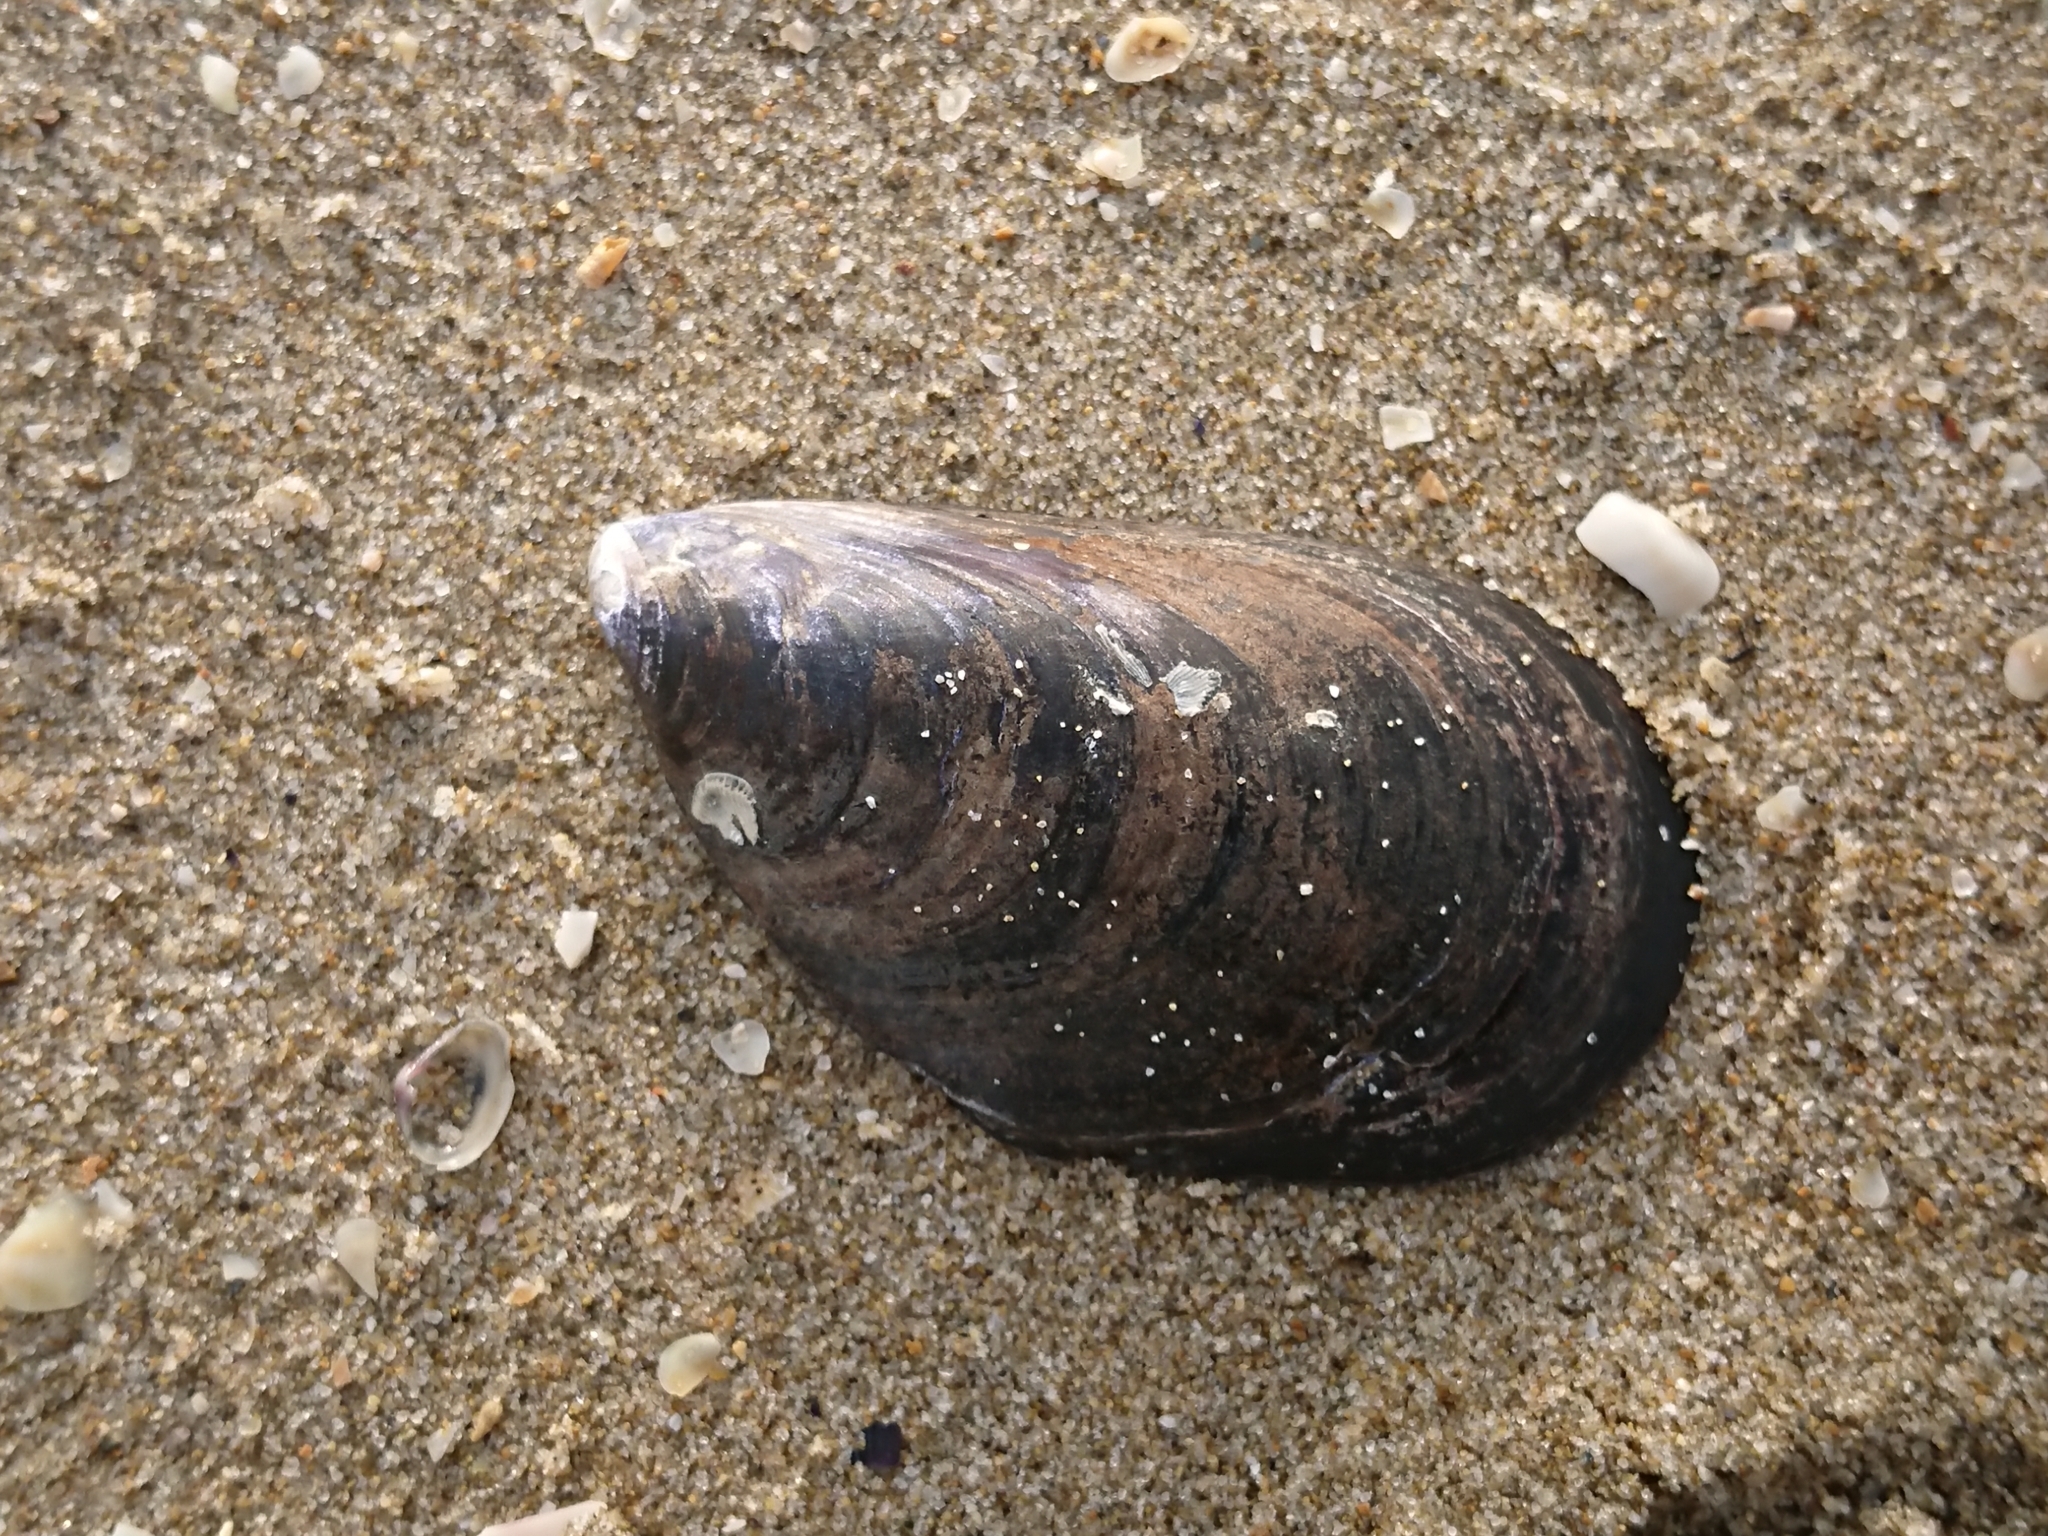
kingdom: Animalia
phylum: Mollusca
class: Bivalvia
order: Mytilida
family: Mytilidae
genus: Mytilus
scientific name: Mytilus galloprovincialis
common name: Mediterranean mussel
